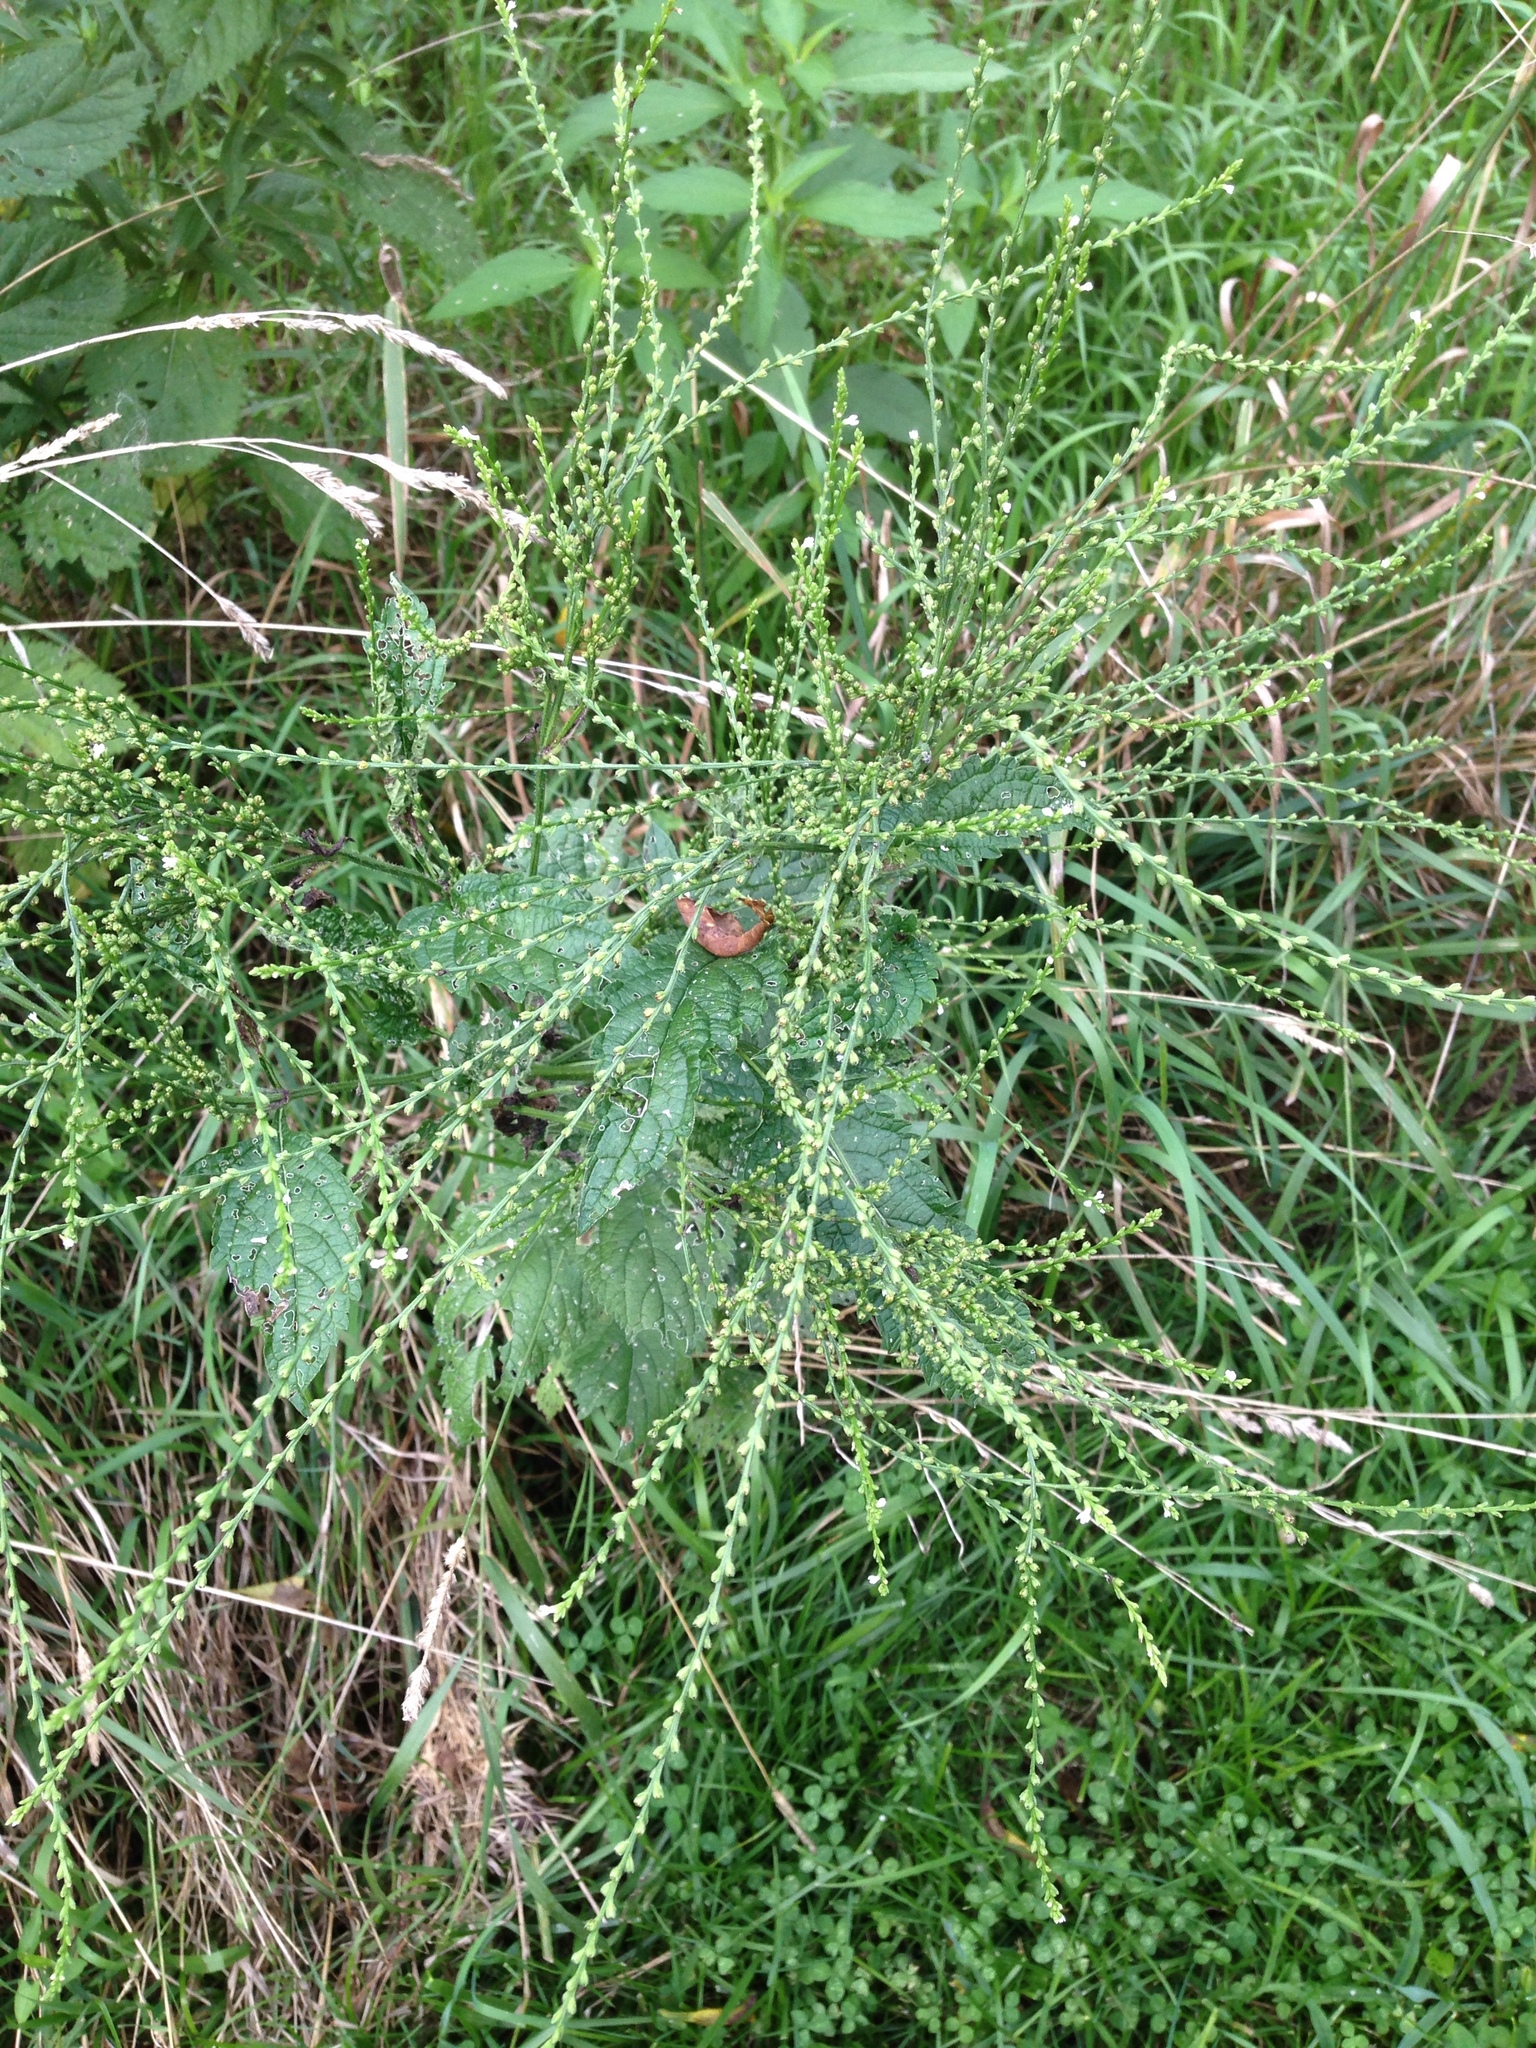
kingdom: Plantae
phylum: Tracheophyta
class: Magnoliopsida
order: Lamiales
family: Verbenaceae
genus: Verbena
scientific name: Verbena urticifolia
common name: Nettle-leaved vervain
